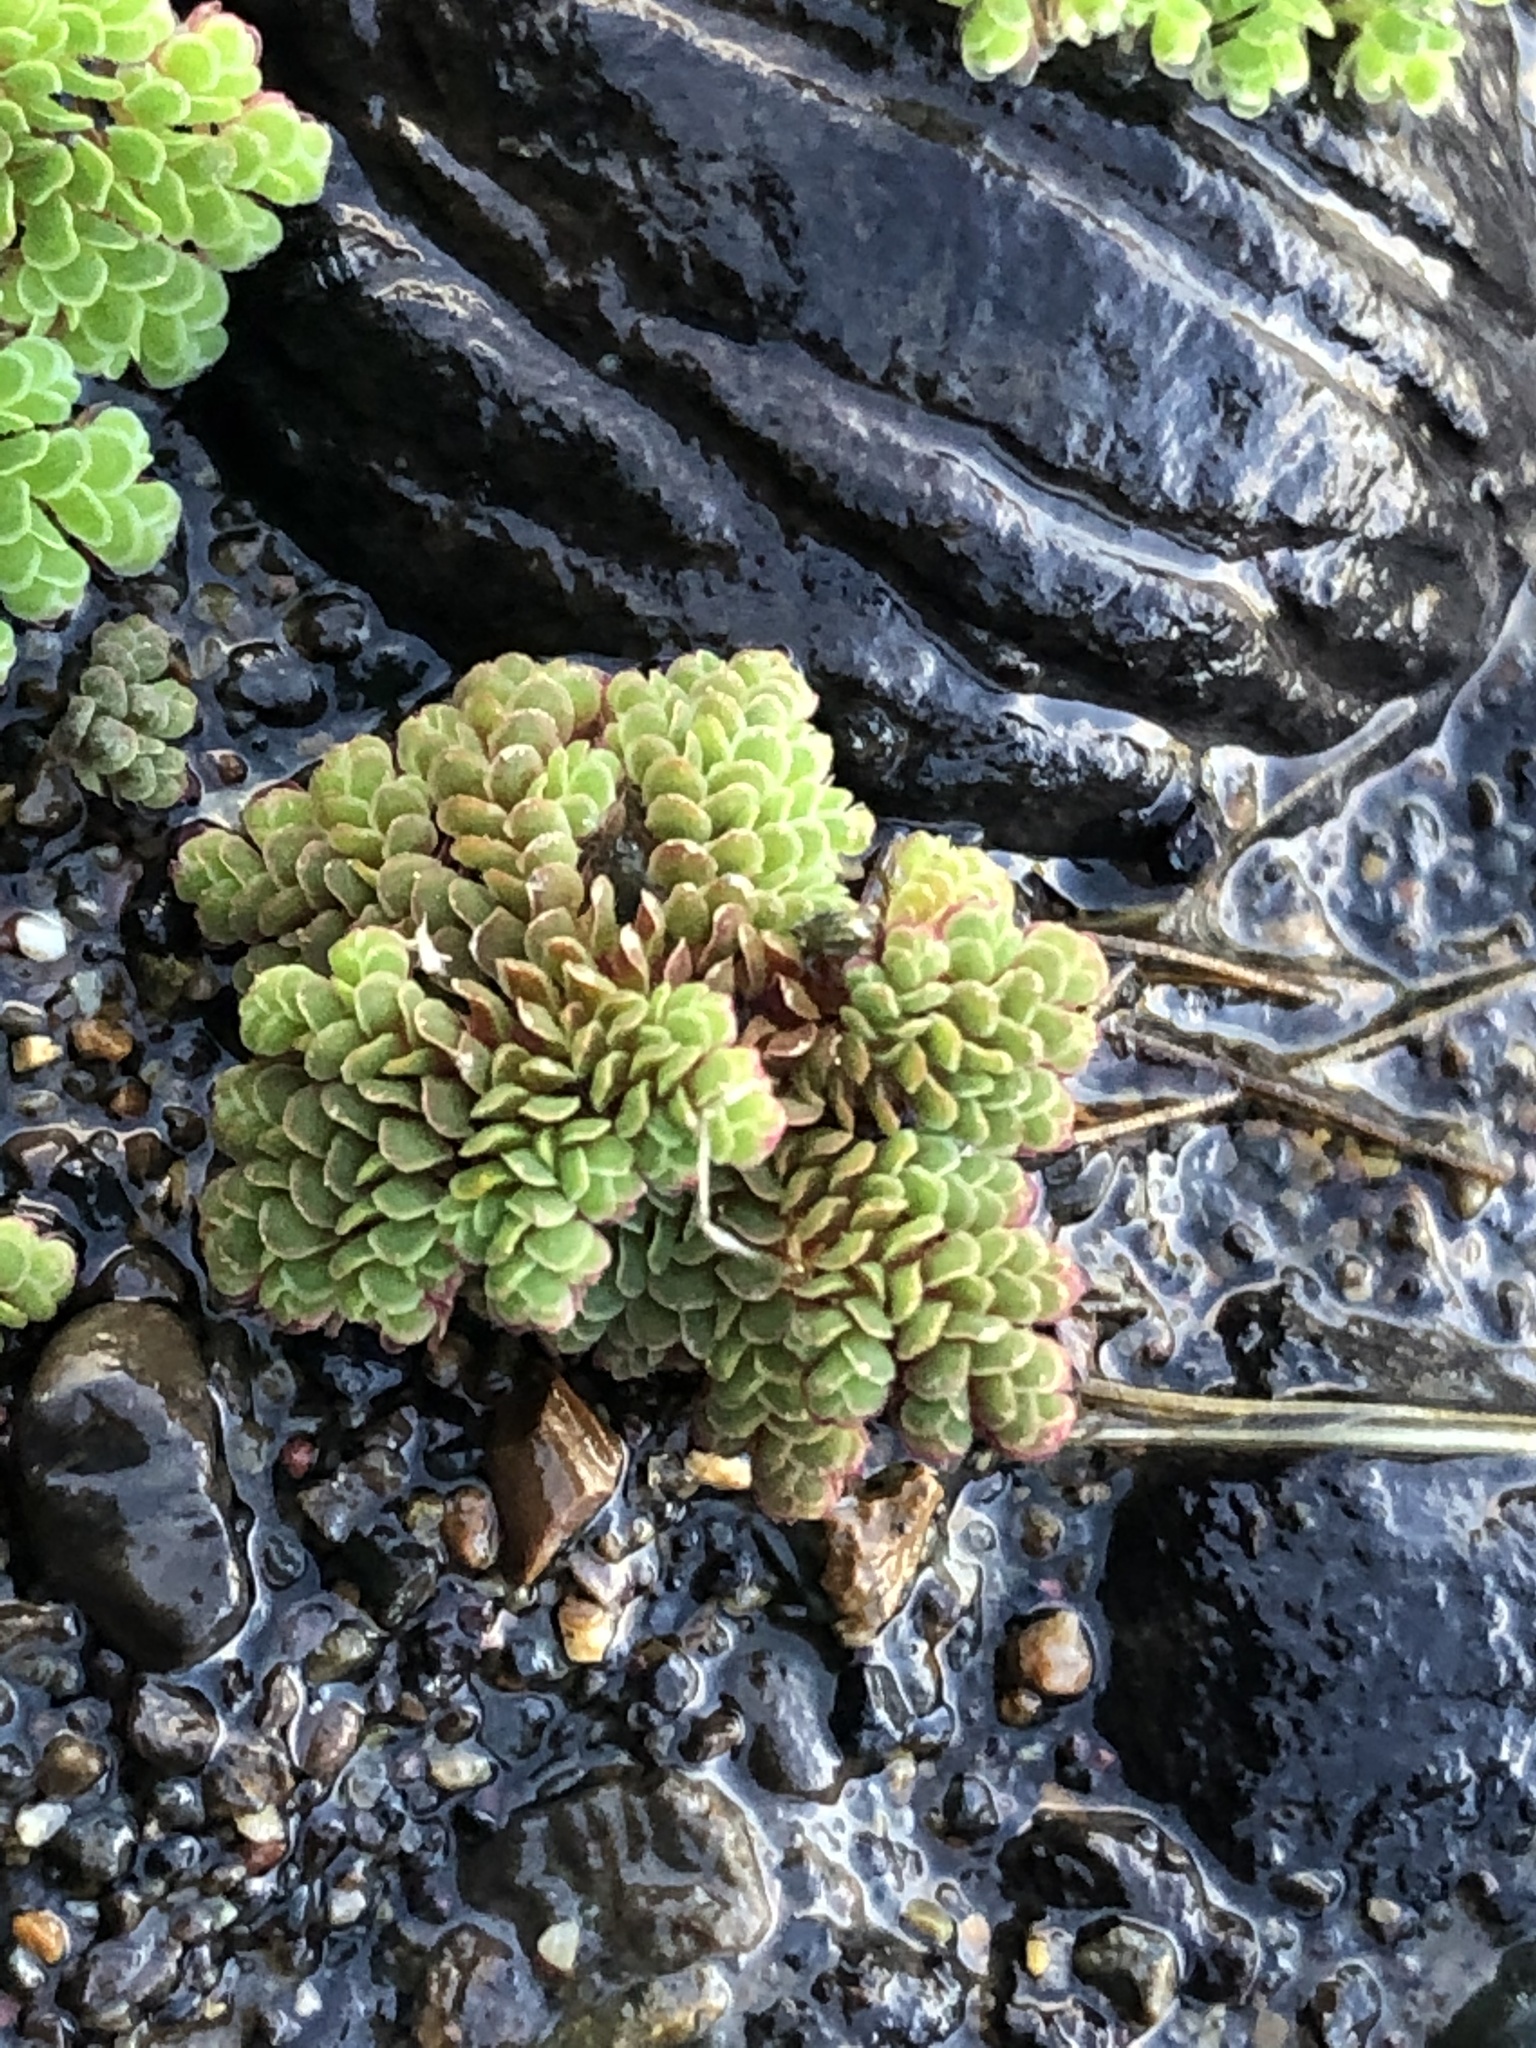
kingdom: Plantae
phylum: Tracheophyta
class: Polypodiopsida
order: Salviniales
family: Salviniaceae
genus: Azolla
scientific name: Azolla filiculoides
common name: Water fern
